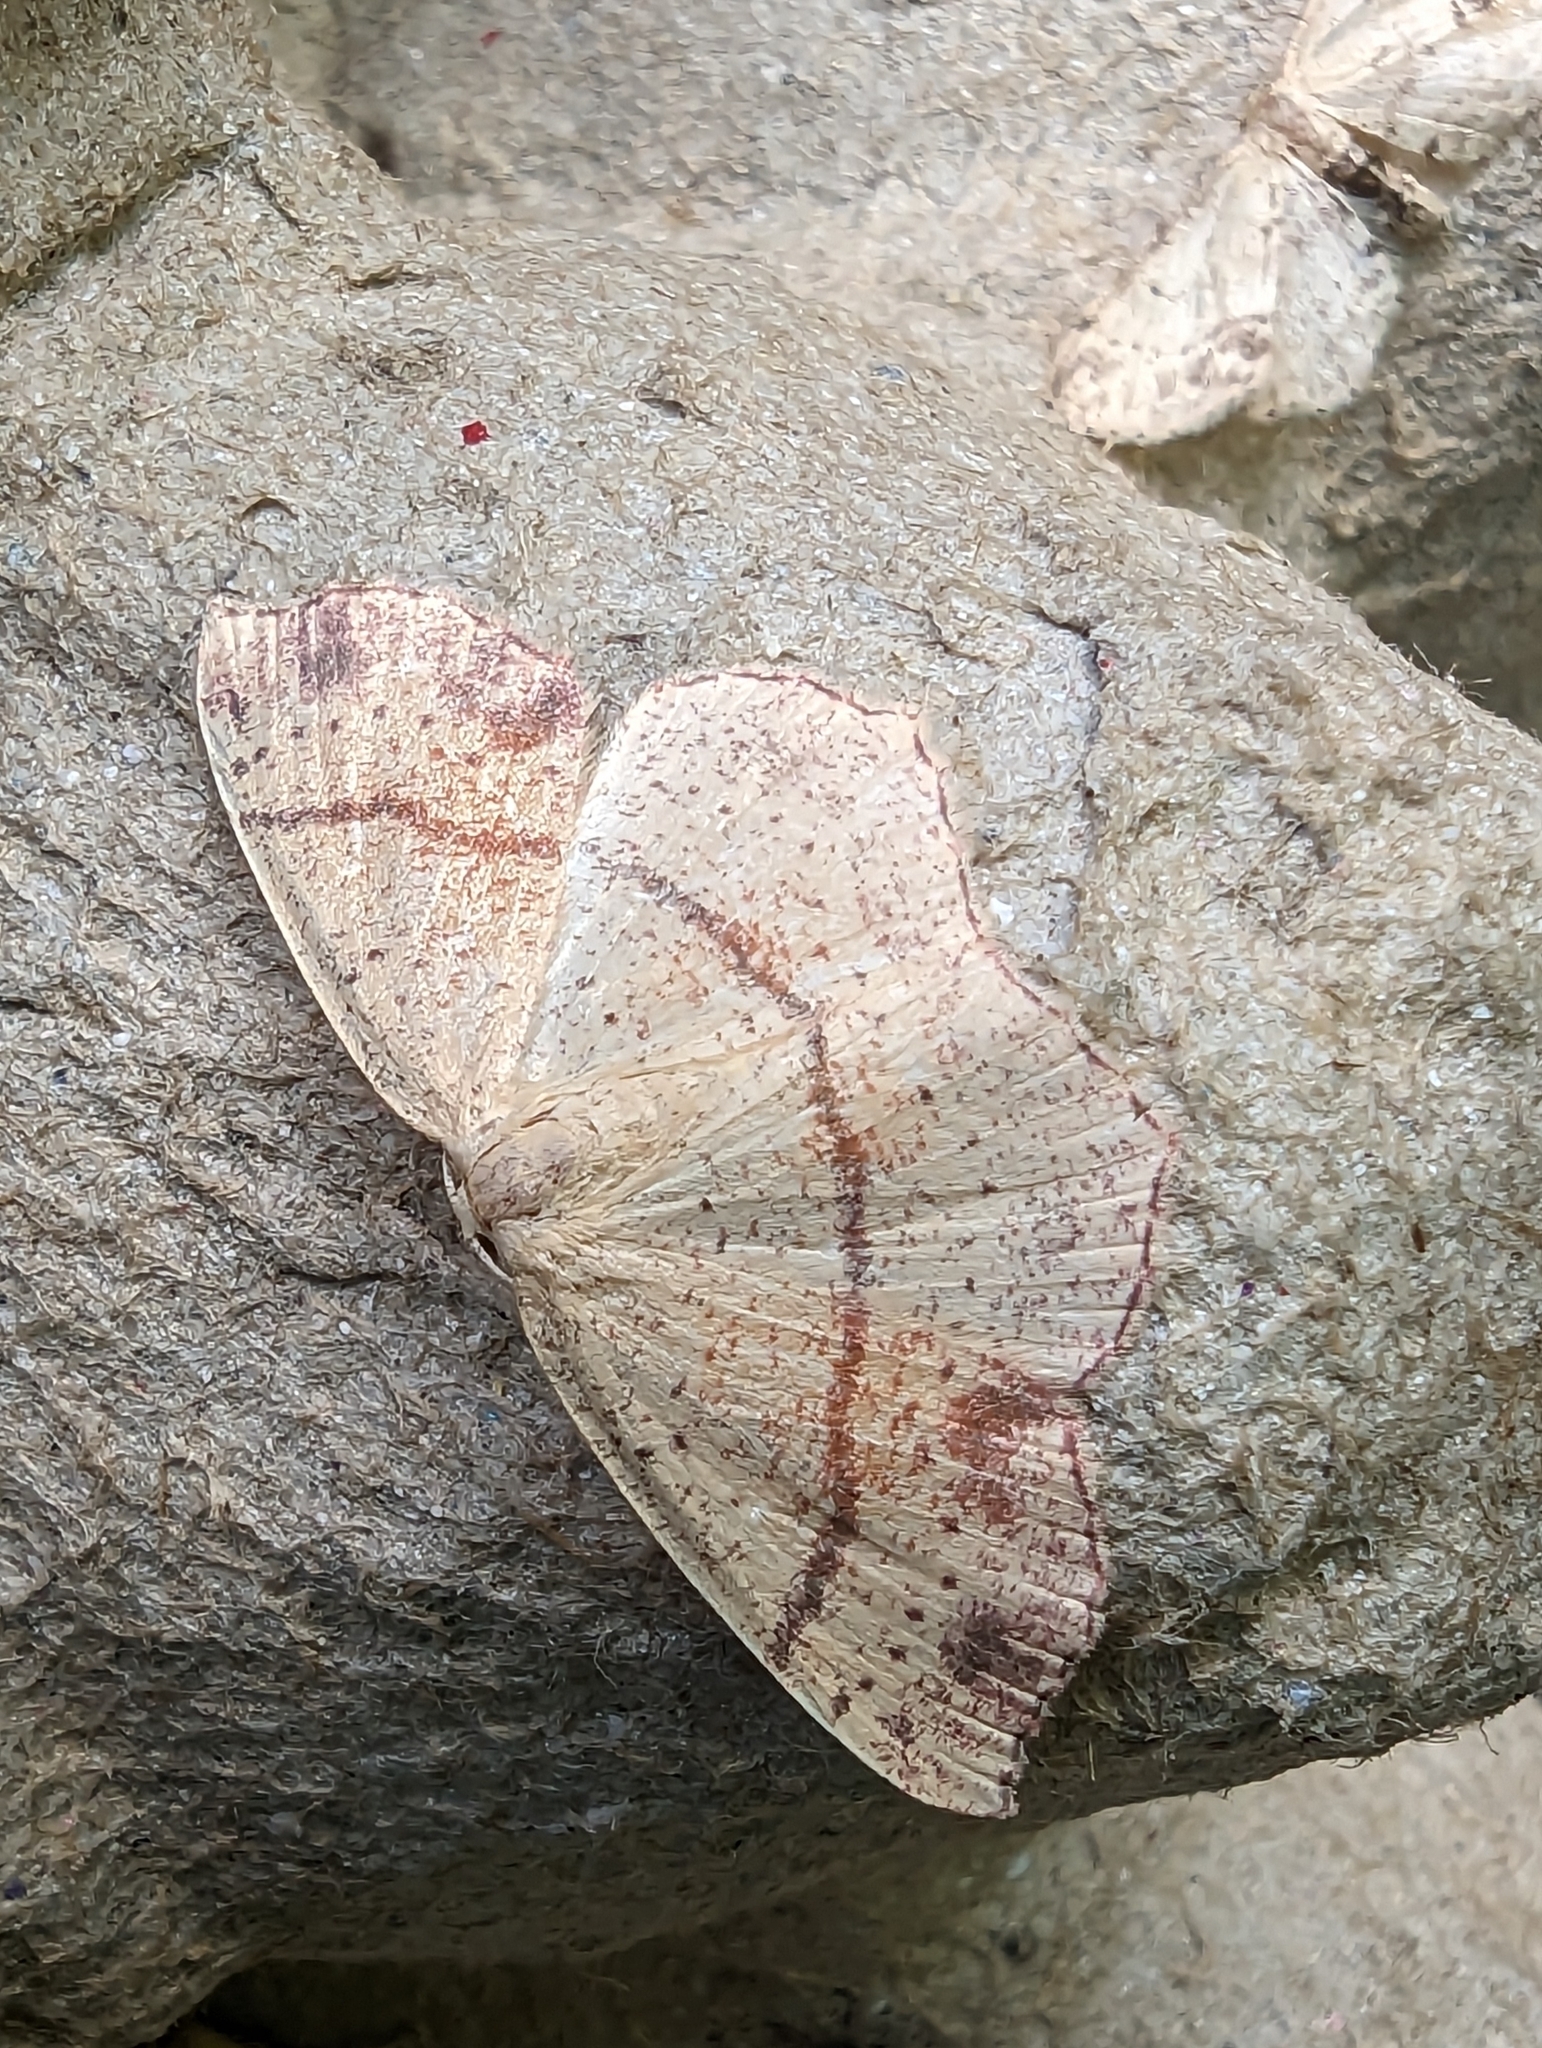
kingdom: Animalia
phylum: Arthropoda
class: Insecta
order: Lepidoptera
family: Geometridae
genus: Cyclophora
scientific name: Cyclophora punctaria
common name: Maiden's blush
